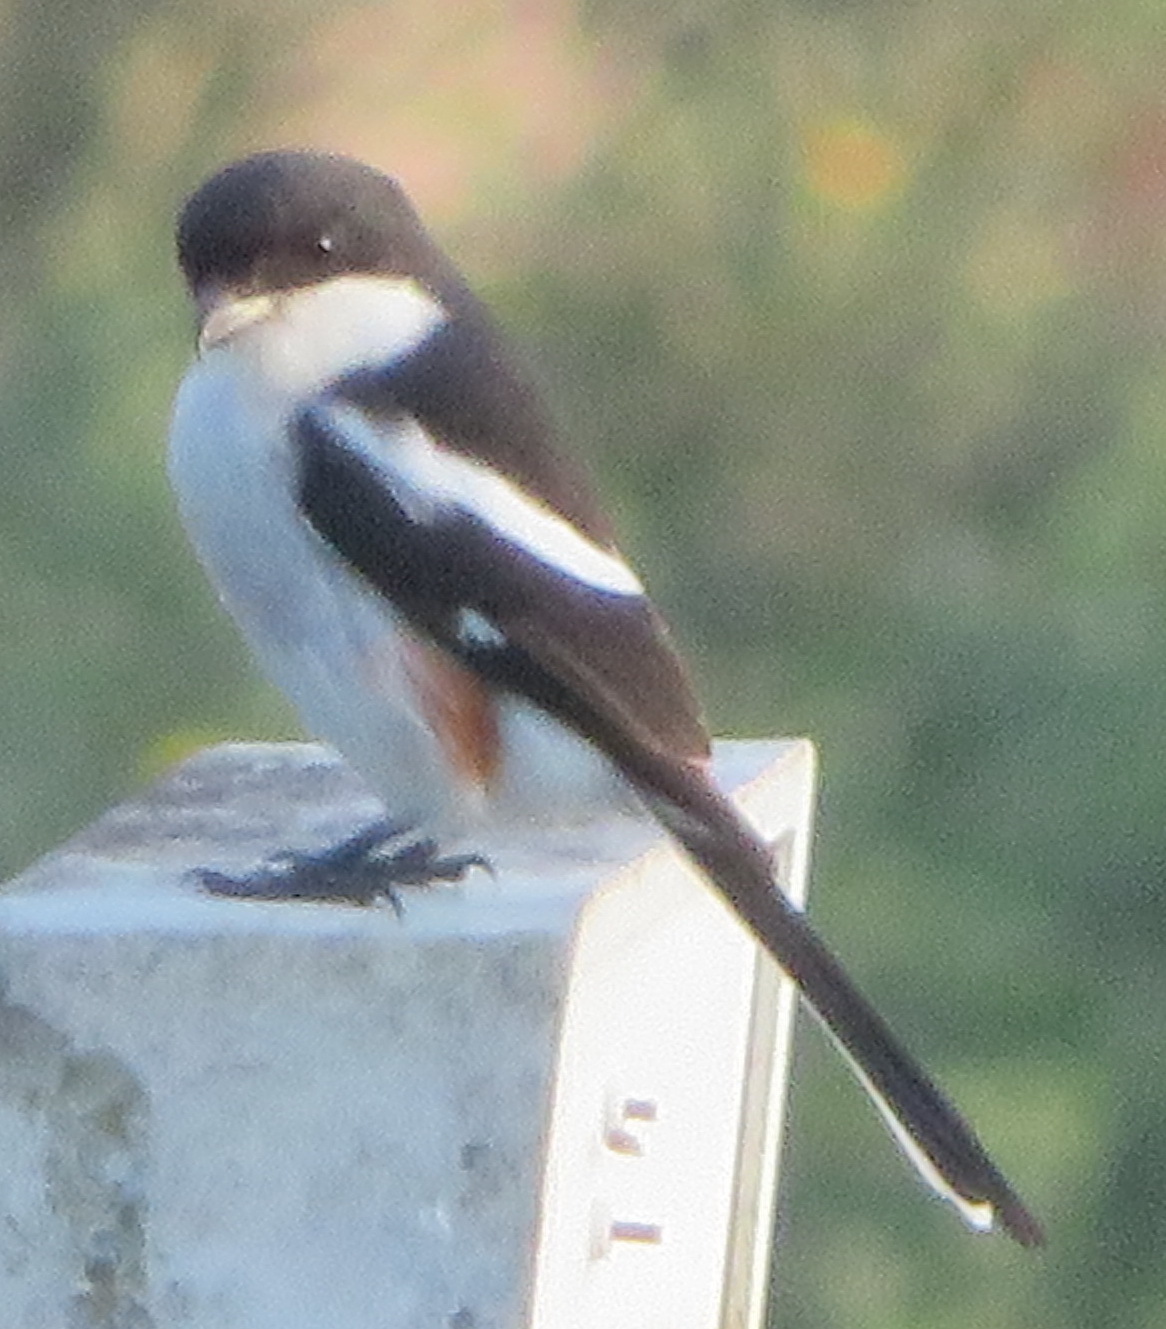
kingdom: Animalia
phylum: Chordata
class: Aves
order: Passeriformes
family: Laniidae
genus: Lanius
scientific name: Lanius collaris
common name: Southern fiscal
